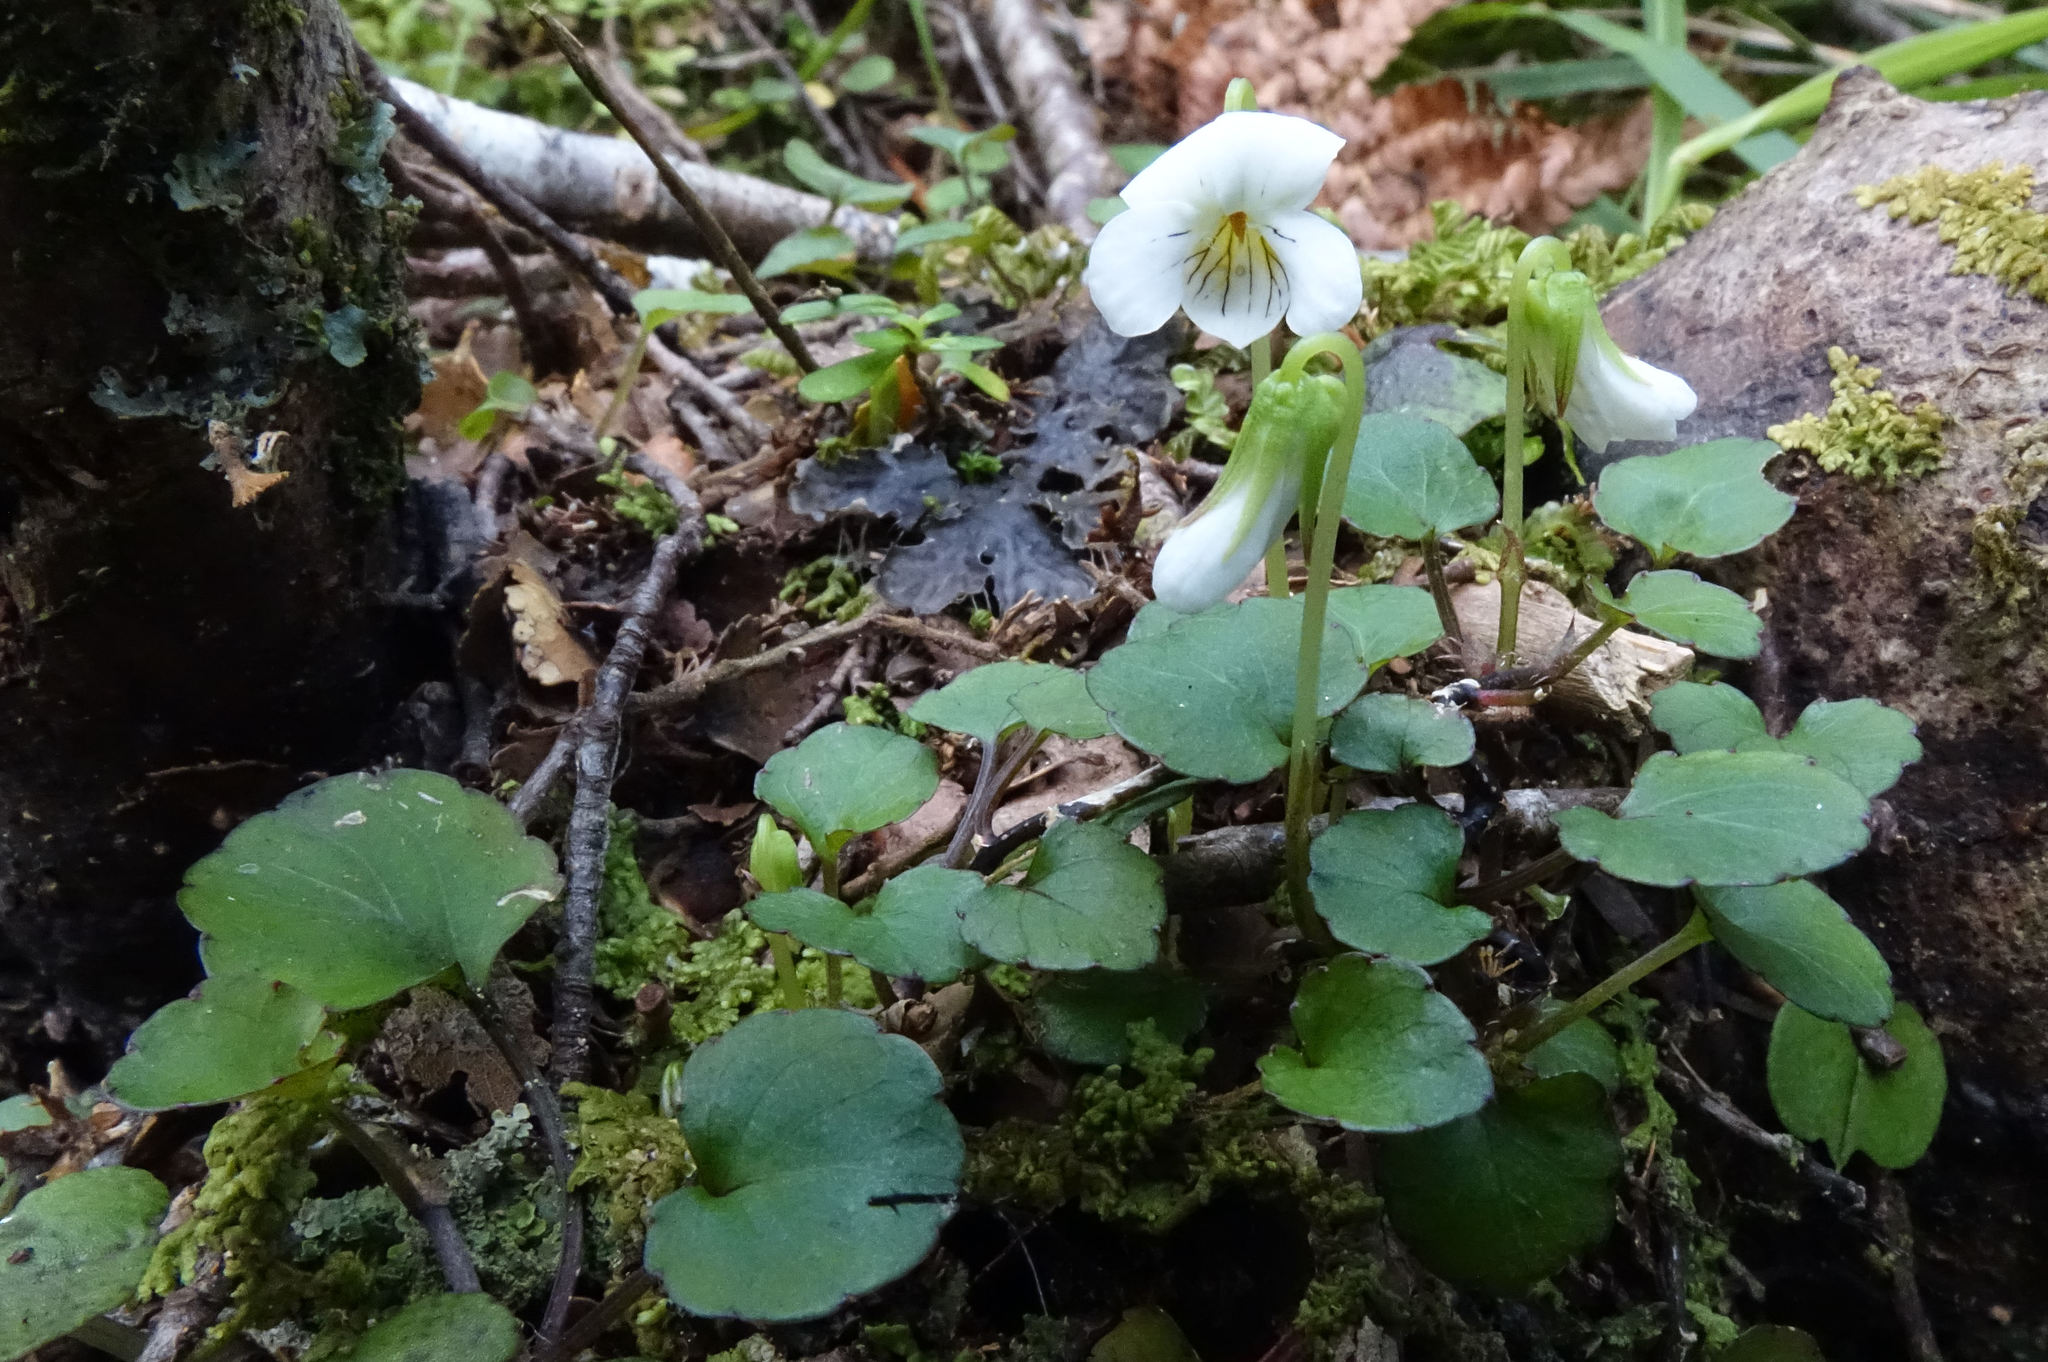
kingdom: Plantae
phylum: Tracheophyta
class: Magnoliopsida
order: Malpighiales
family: Violaceae
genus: Viola
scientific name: Viola filicaulis
